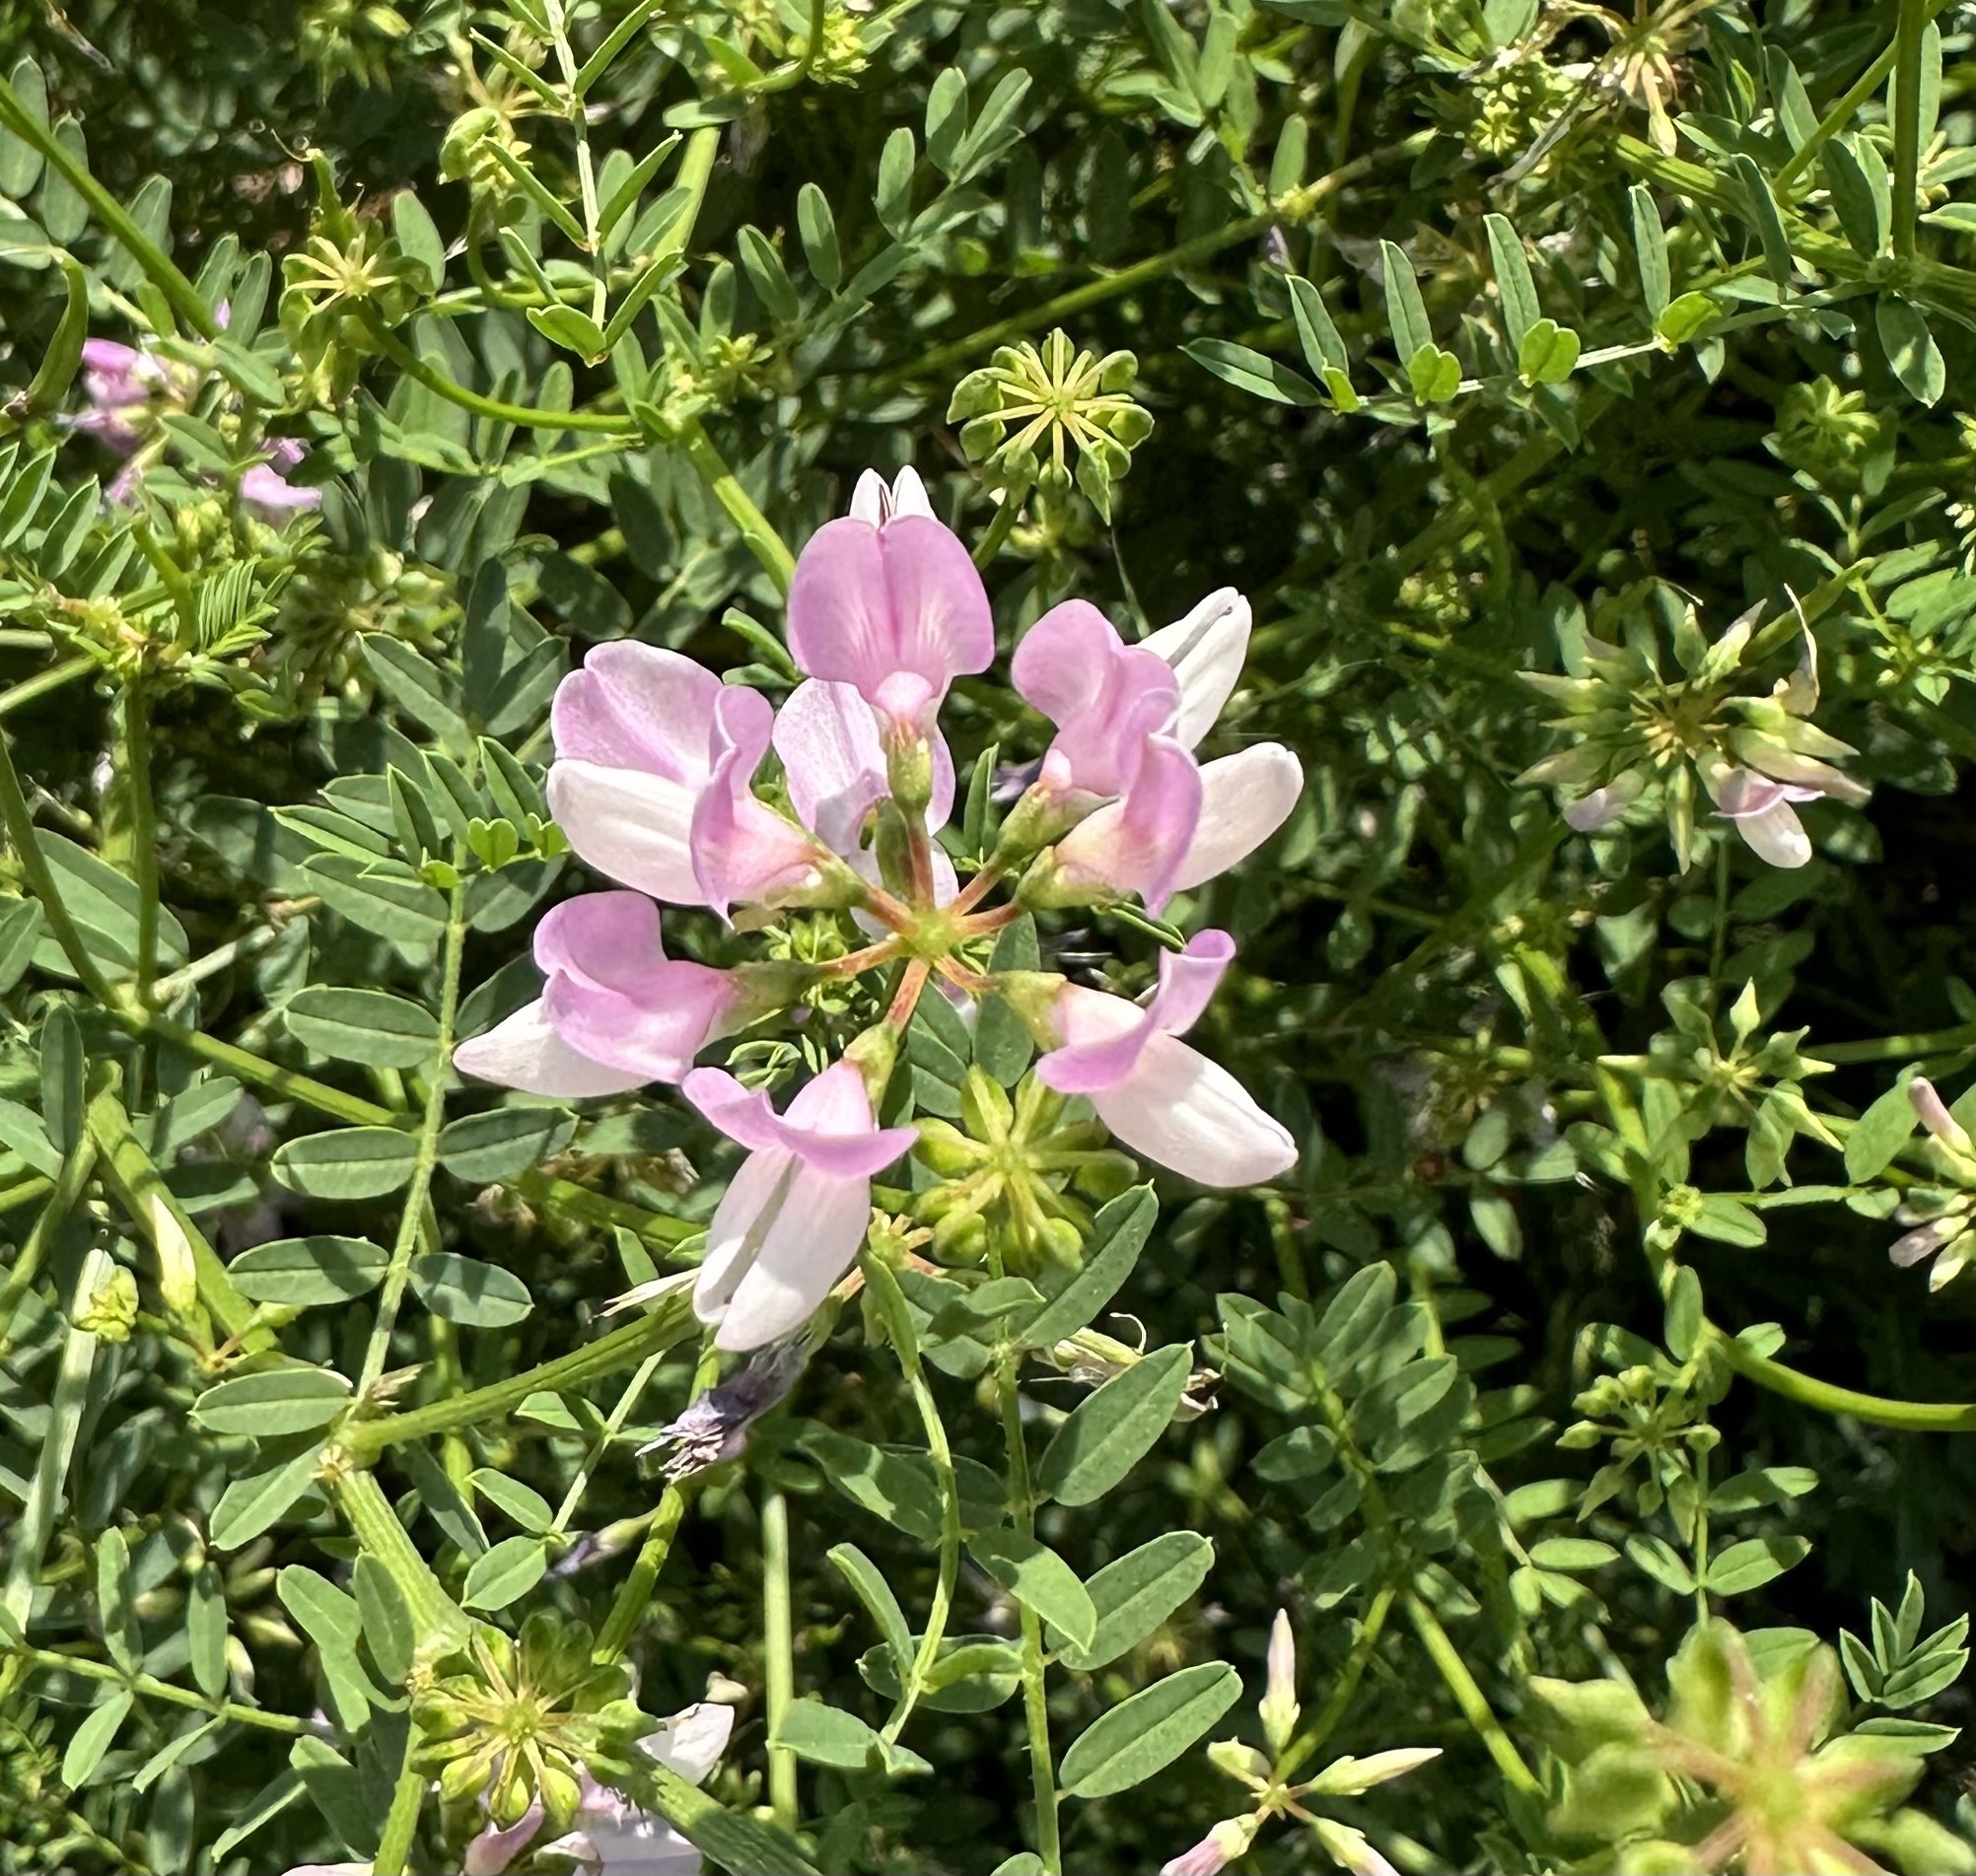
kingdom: Plantae
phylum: Tracheophyta
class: Magnoliopsida
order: Fabales
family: Fabaceae
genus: Coronilla
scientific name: Coronilla varia
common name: Crownvetch
